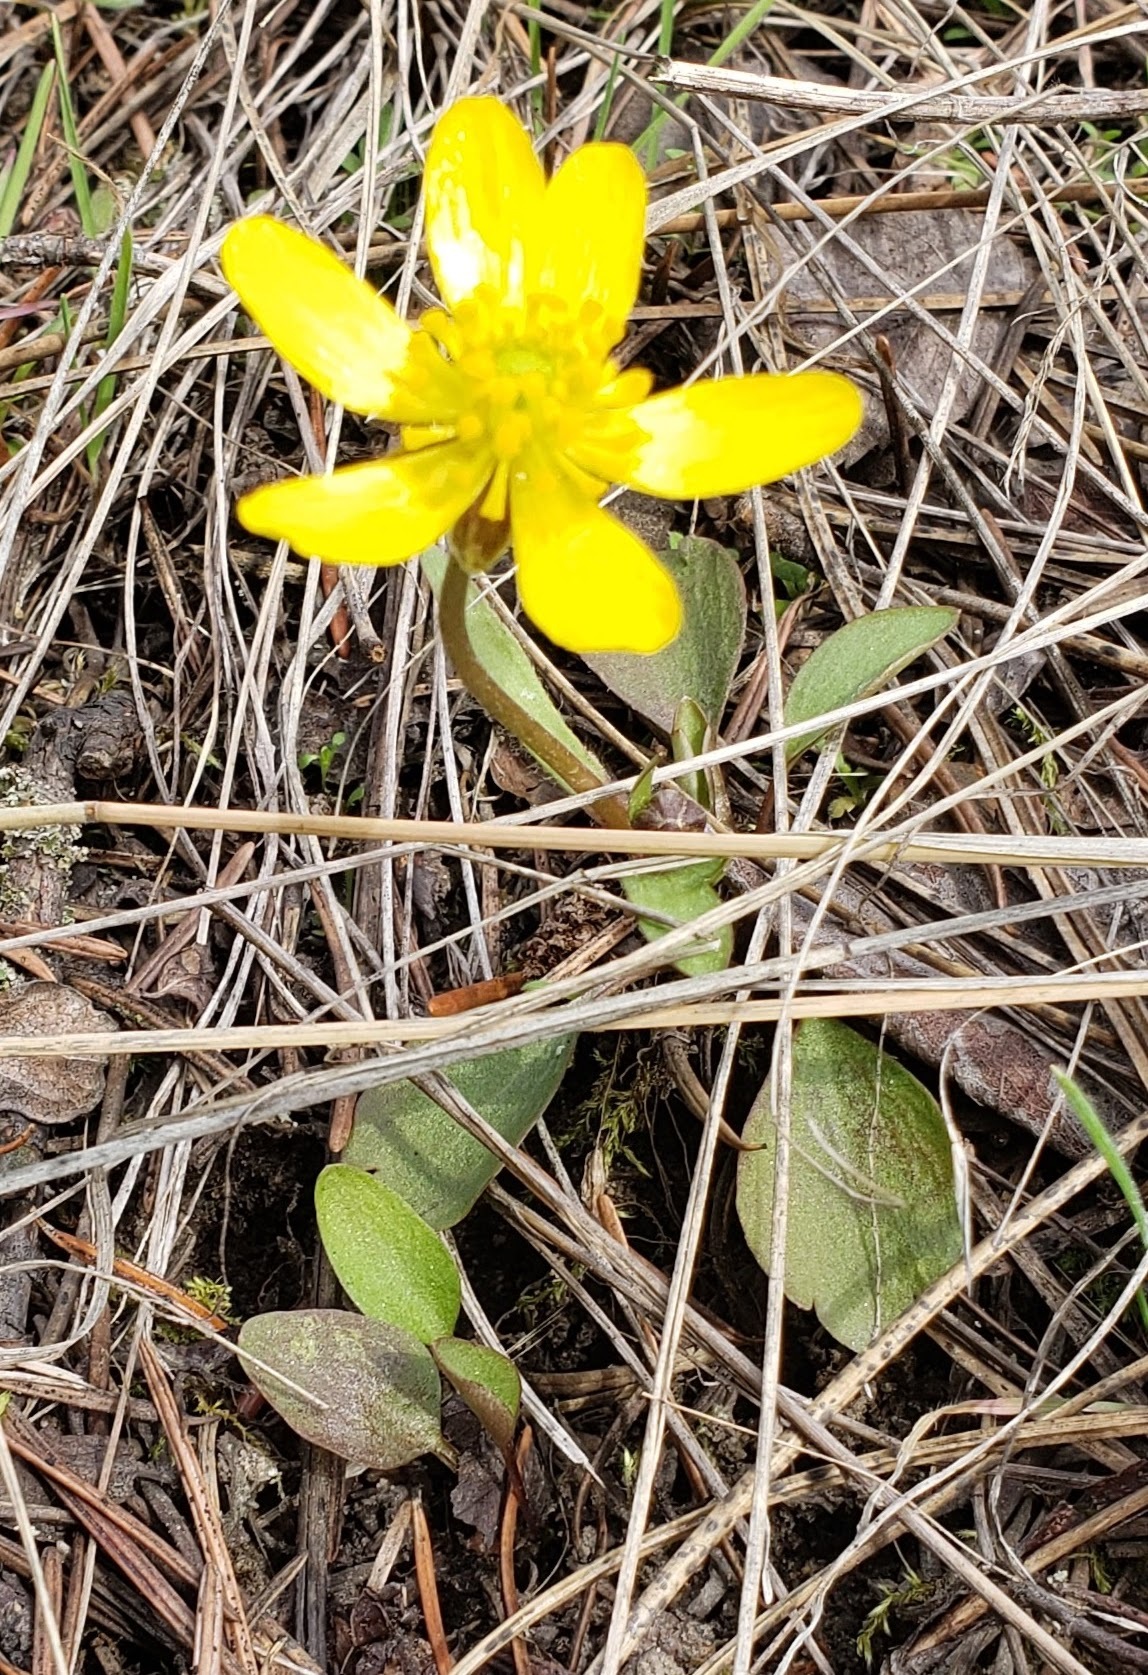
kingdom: Plantae
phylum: Tracheophyta
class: Magnoliopsida
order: Ranunculales
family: Ranunculaceae
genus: Ranunculus
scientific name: Ranunculus glaberrimus
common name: Sagebrush buttercup
